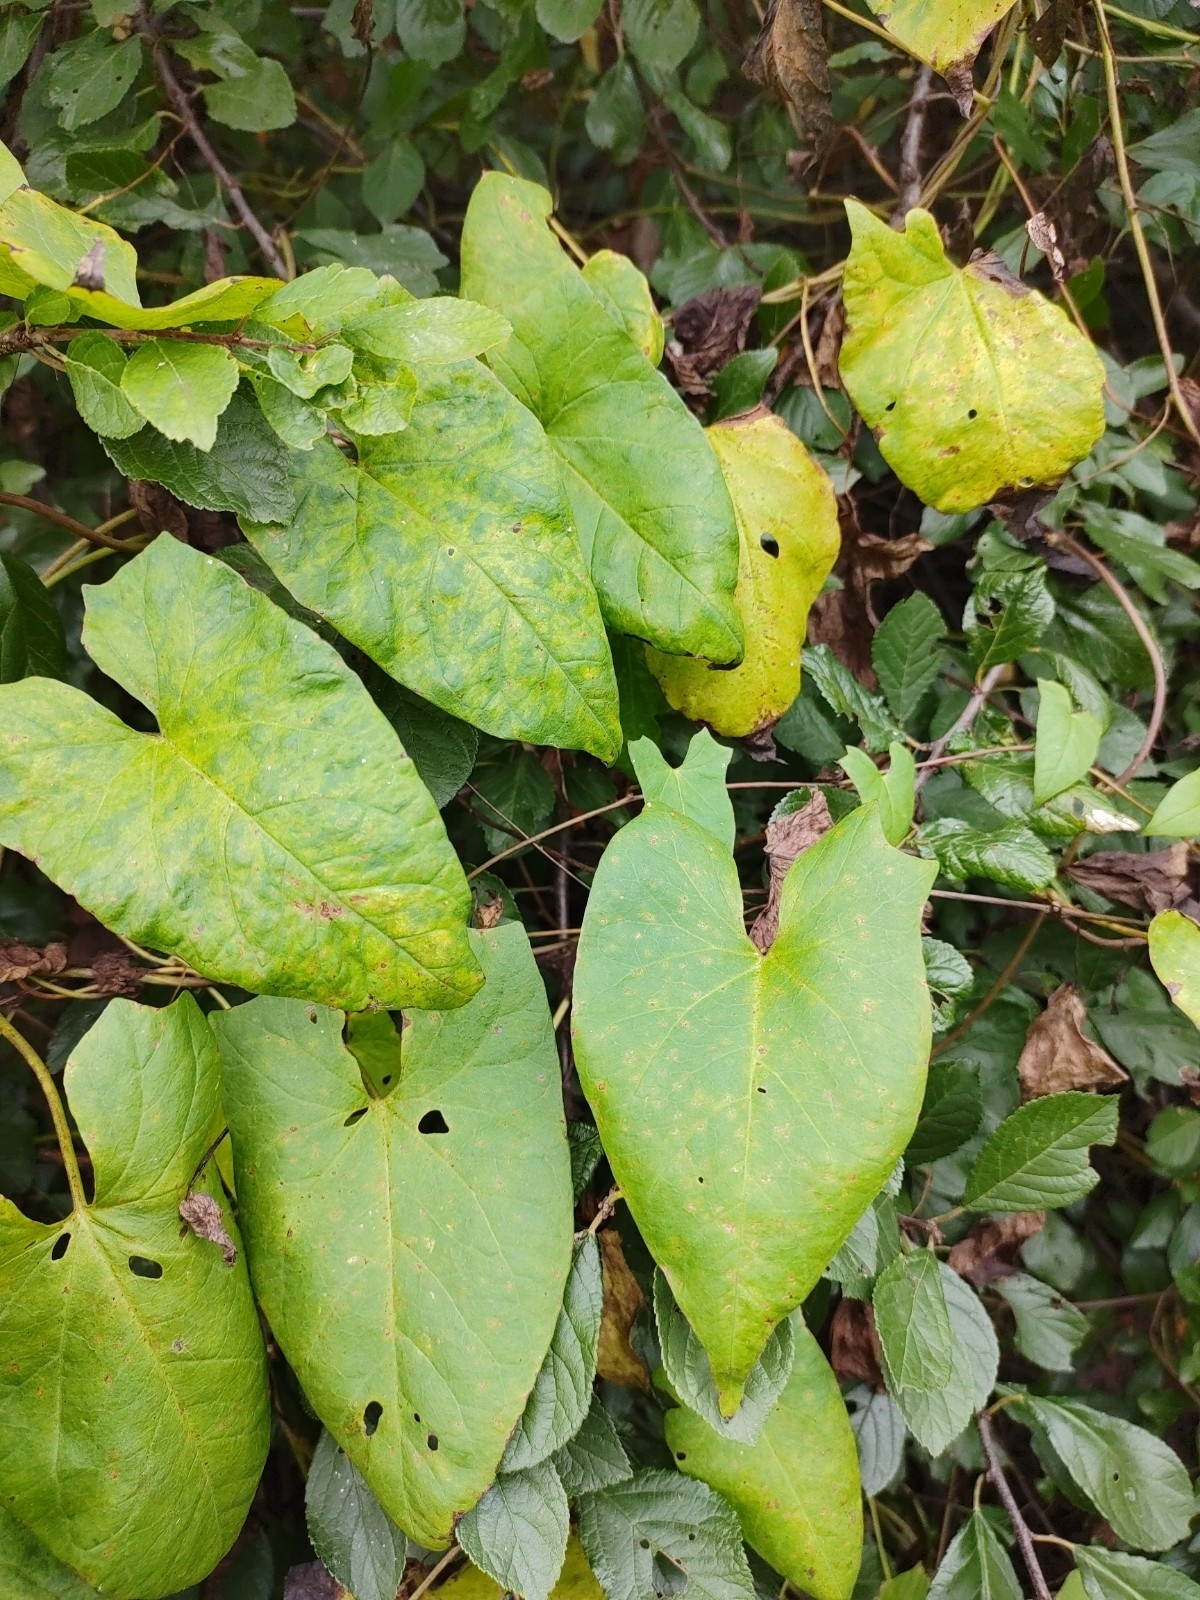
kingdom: Plantae
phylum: Tracheophyta
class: Magnoliopsida
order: Solanales
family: Convolvulaceae
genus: Calystegia
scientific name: Calystegia sepium
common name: Hedge bindweed
